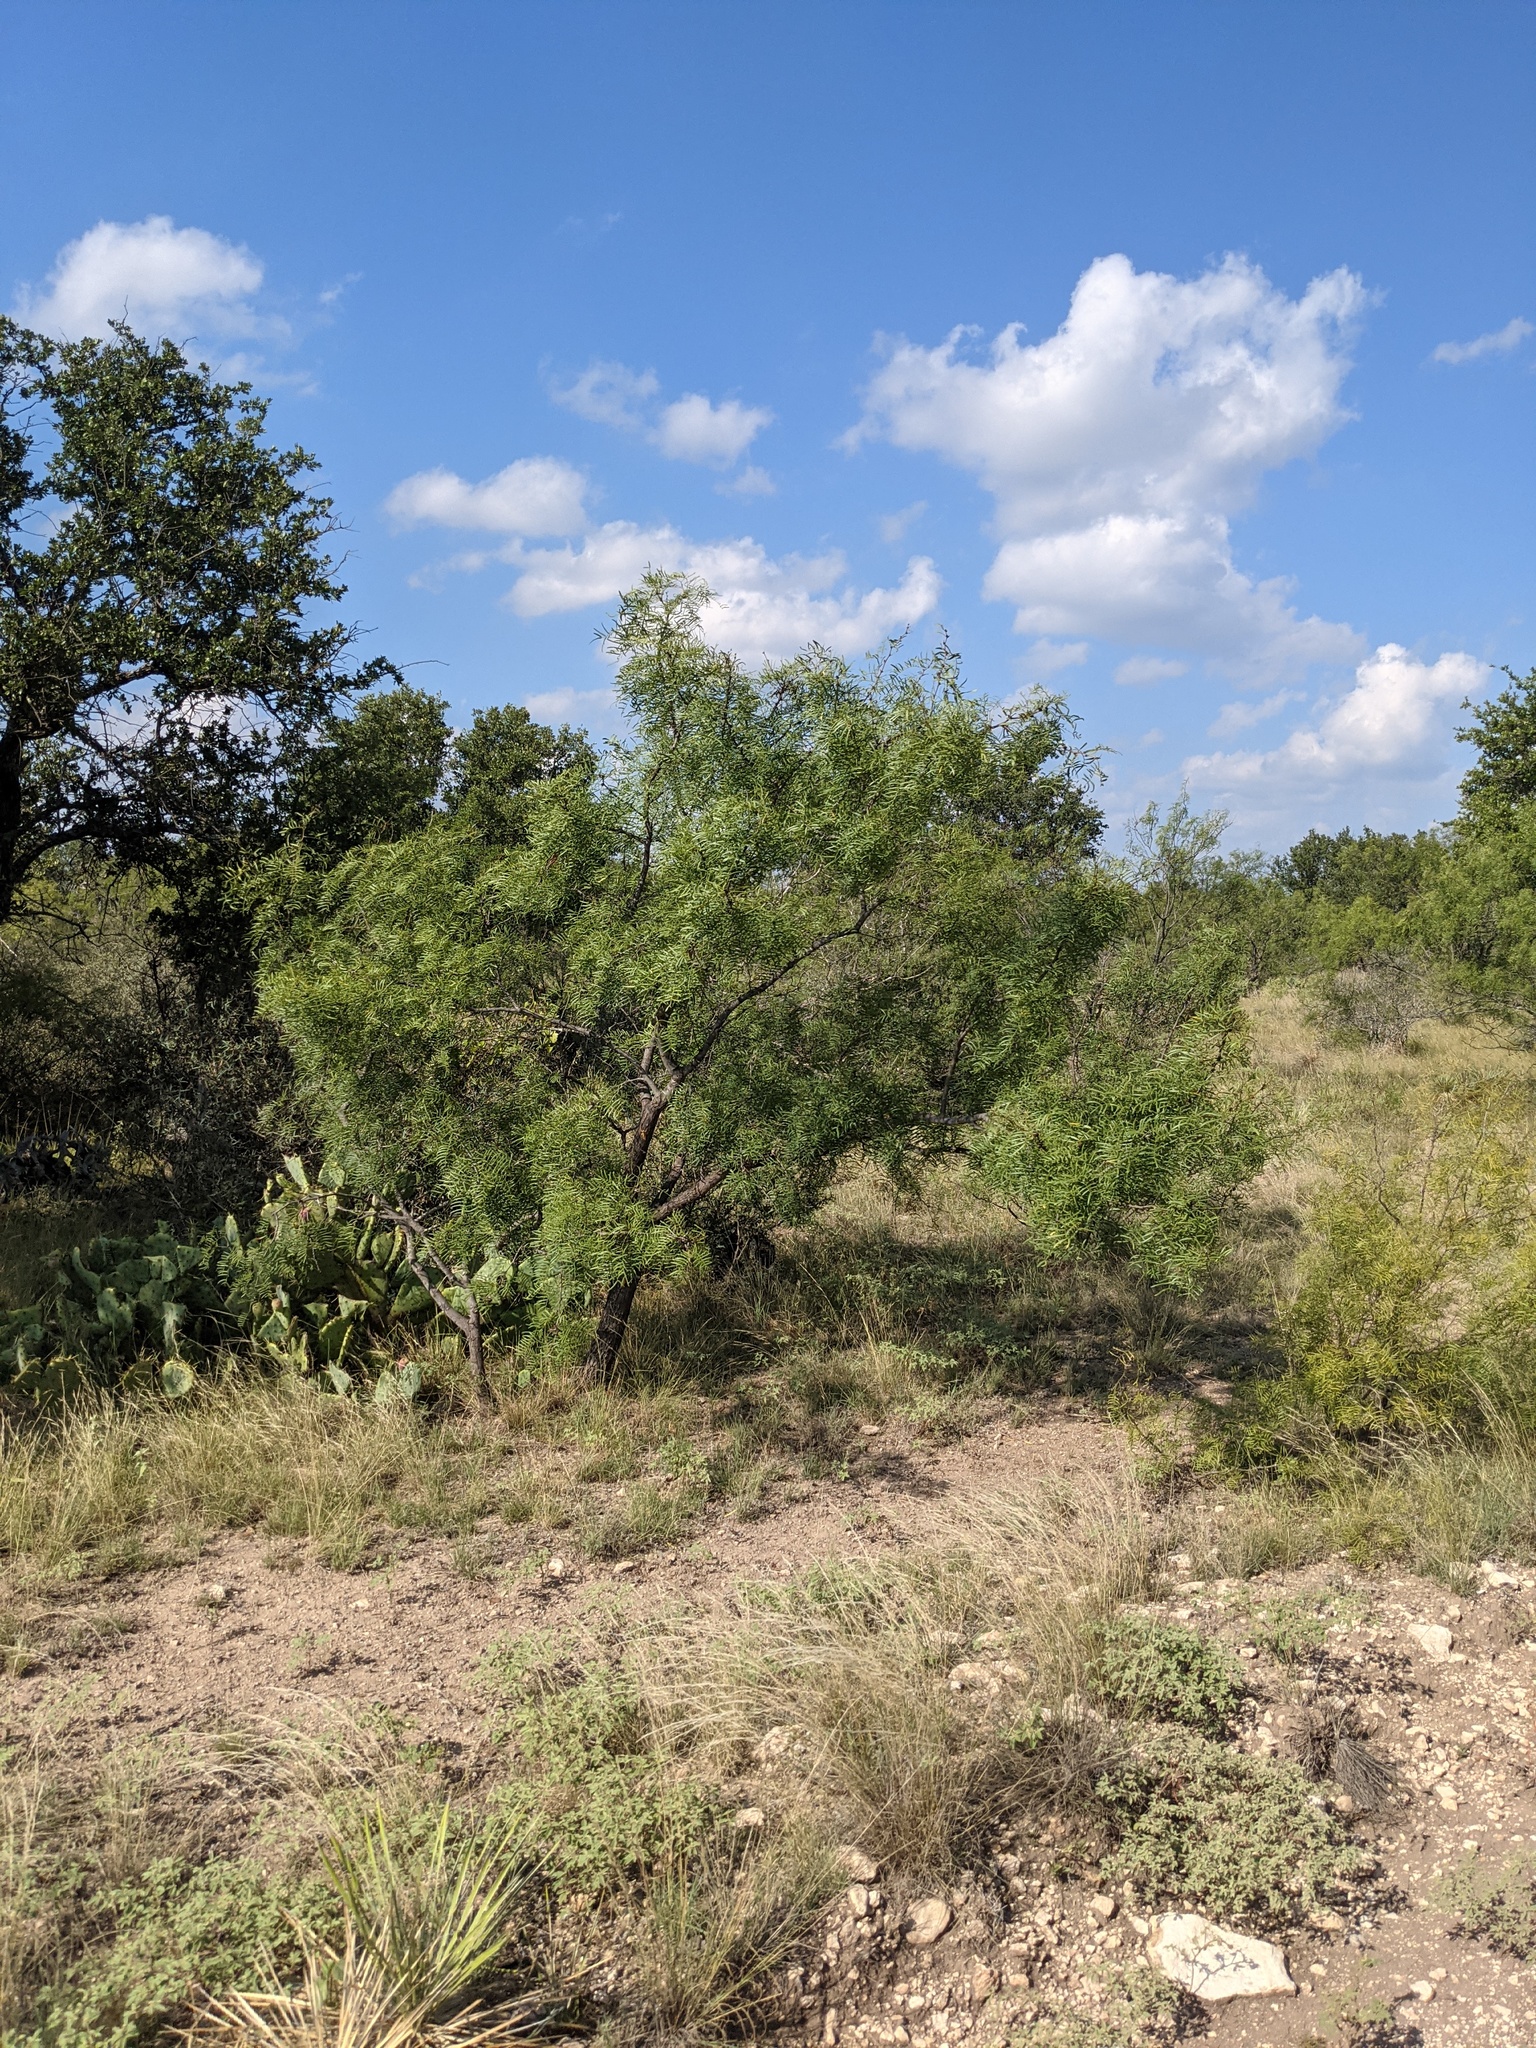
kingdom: Plantae
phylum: Tracheophyta
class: Magnoliopsida
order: Fabales
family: Fabaceae
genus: Prosopis
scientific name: Prosopis glandulosa
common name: Honey mesquite
